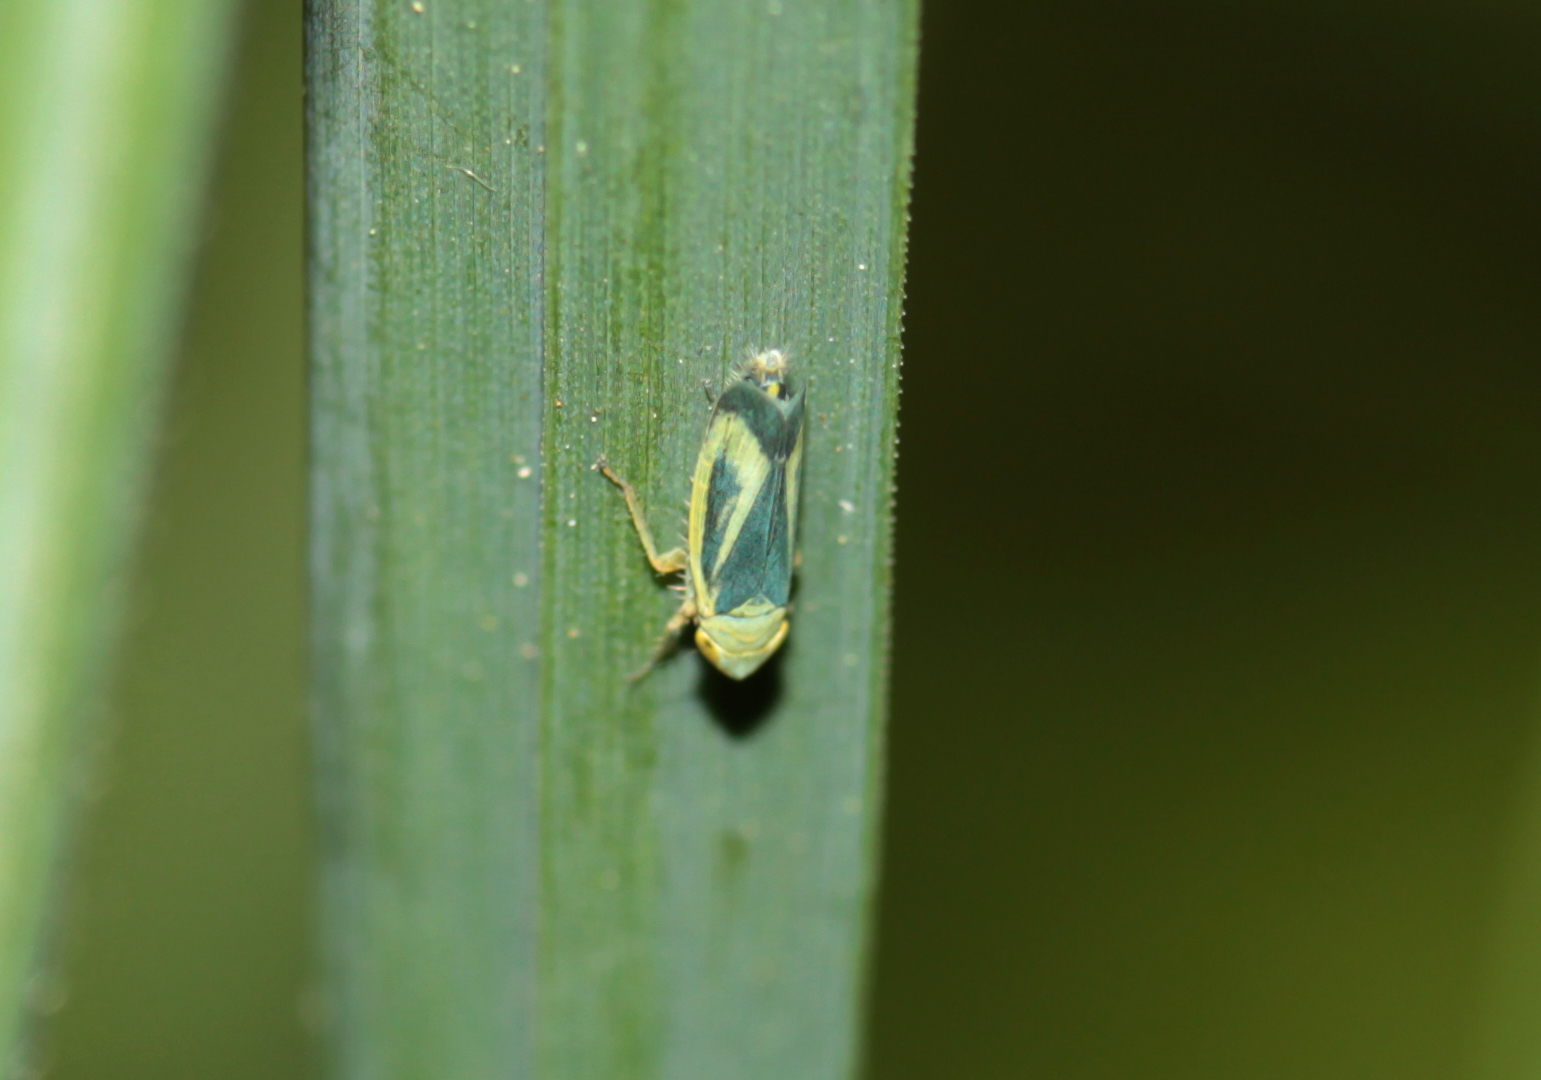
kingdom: Animalia
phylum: Arthropoda
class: Insecta
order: Hemiptera
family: Cicadellidae
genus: Sorhoanus
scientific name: Sorhoanus orientalis
